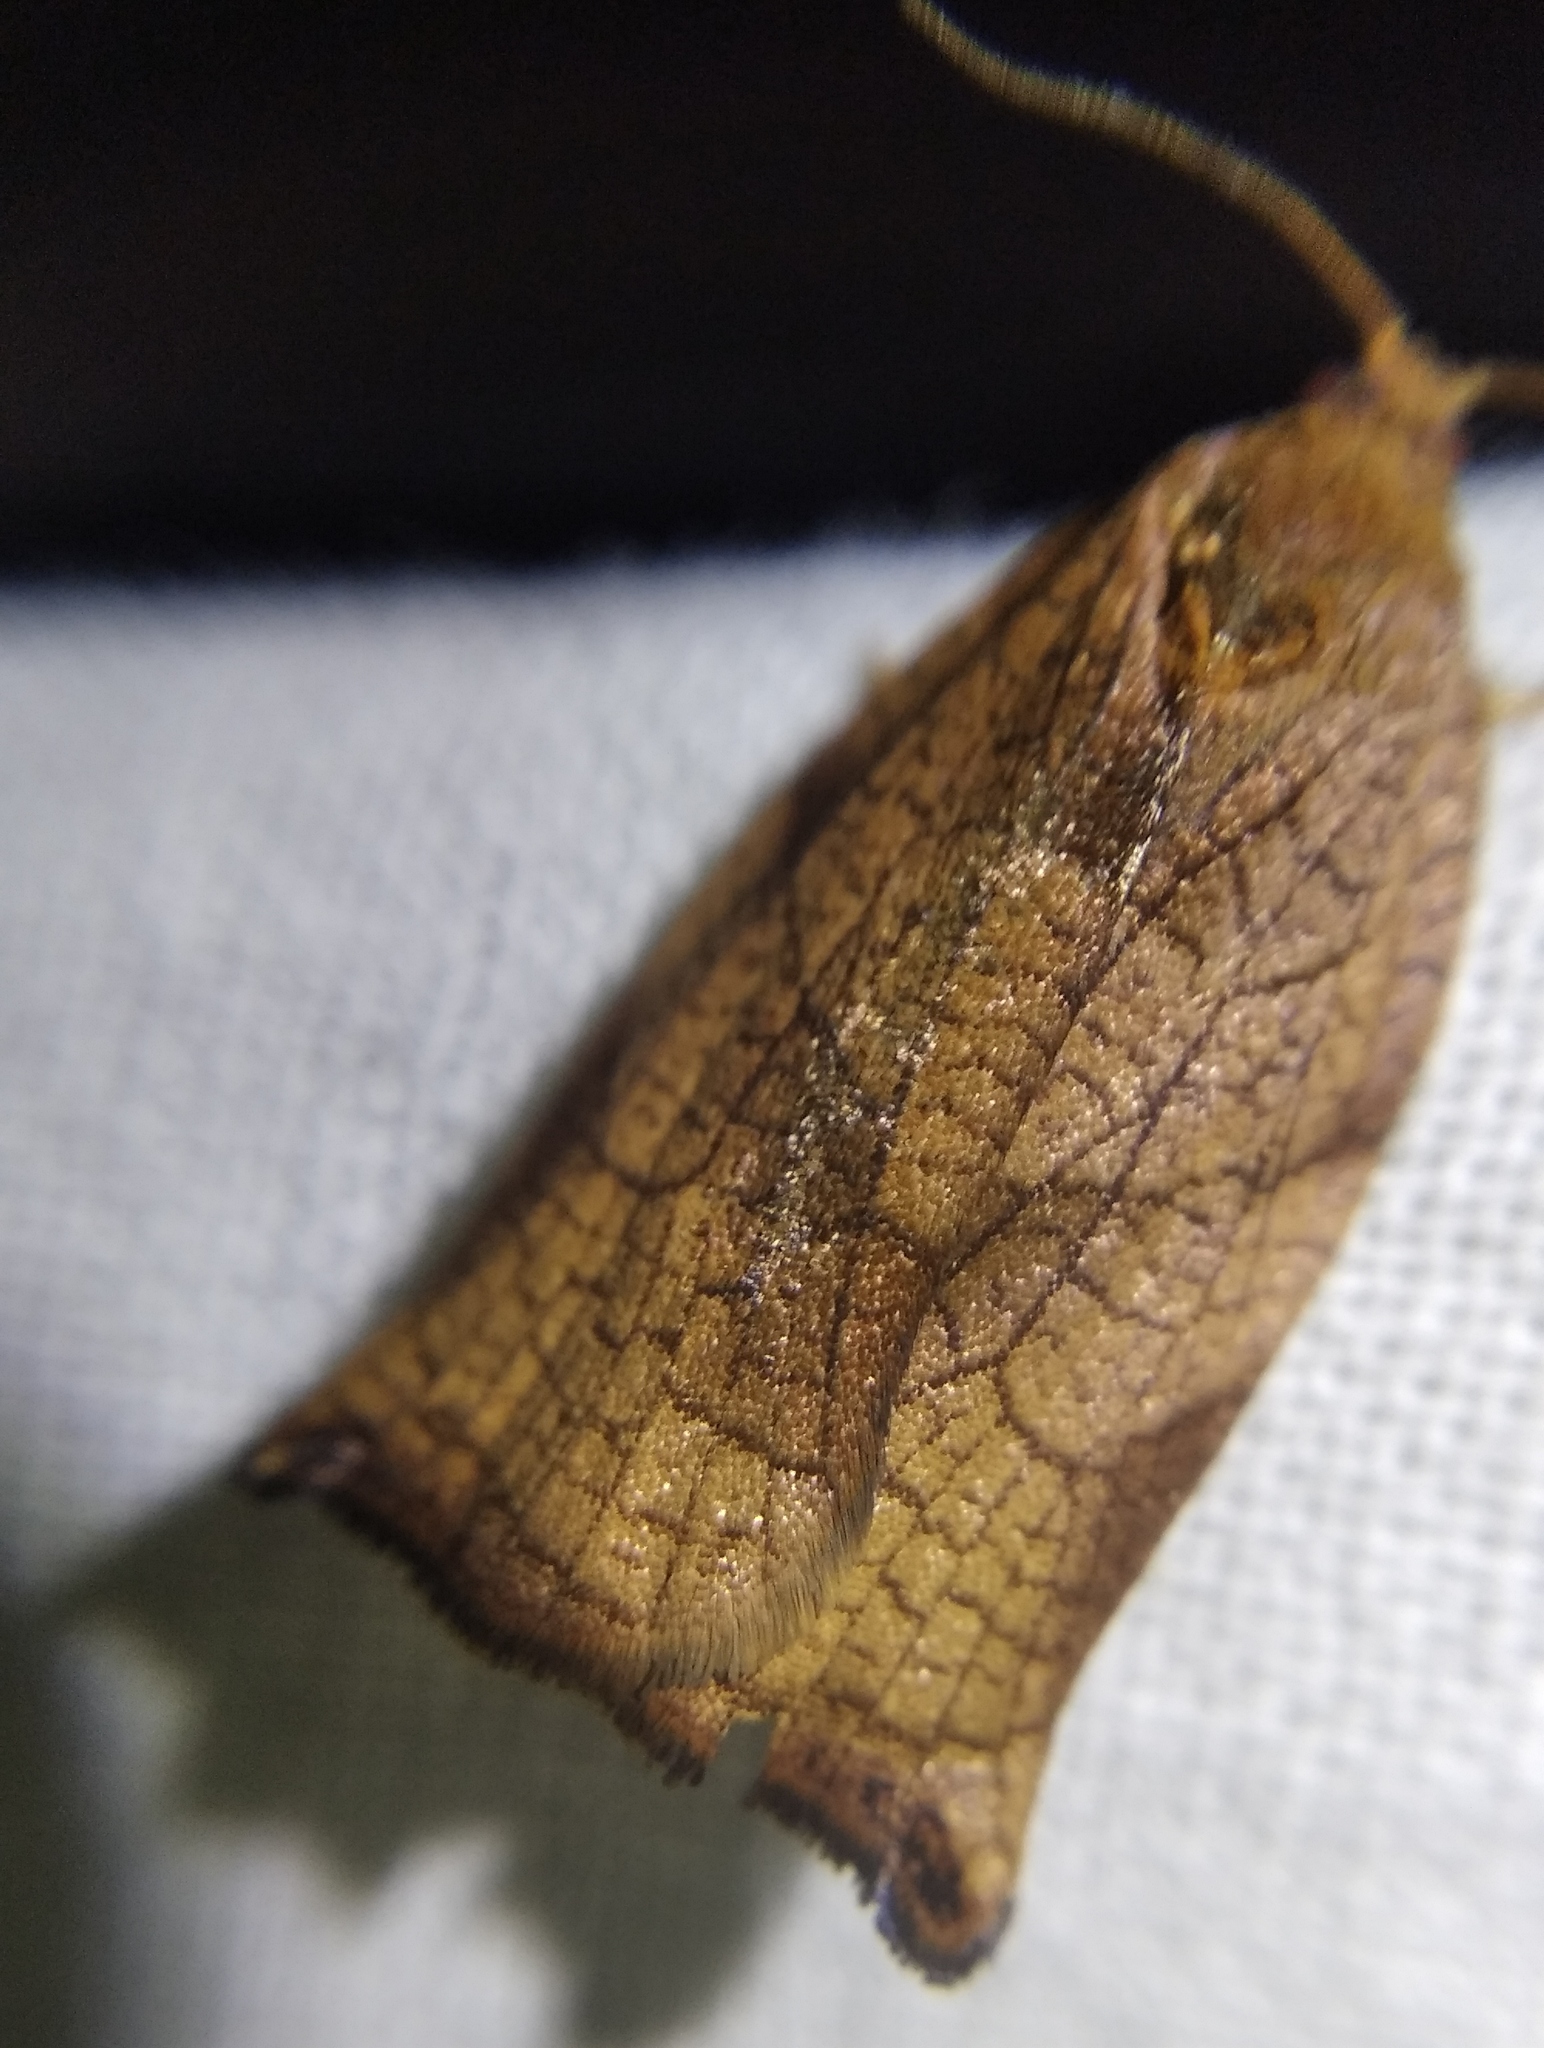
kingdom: Animalia
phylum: Arthropoda
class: Insecta
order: Lepidoptera
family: Tortricidae
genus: Archips
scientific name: Archips podana
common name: Large fruit-tree tortrix
